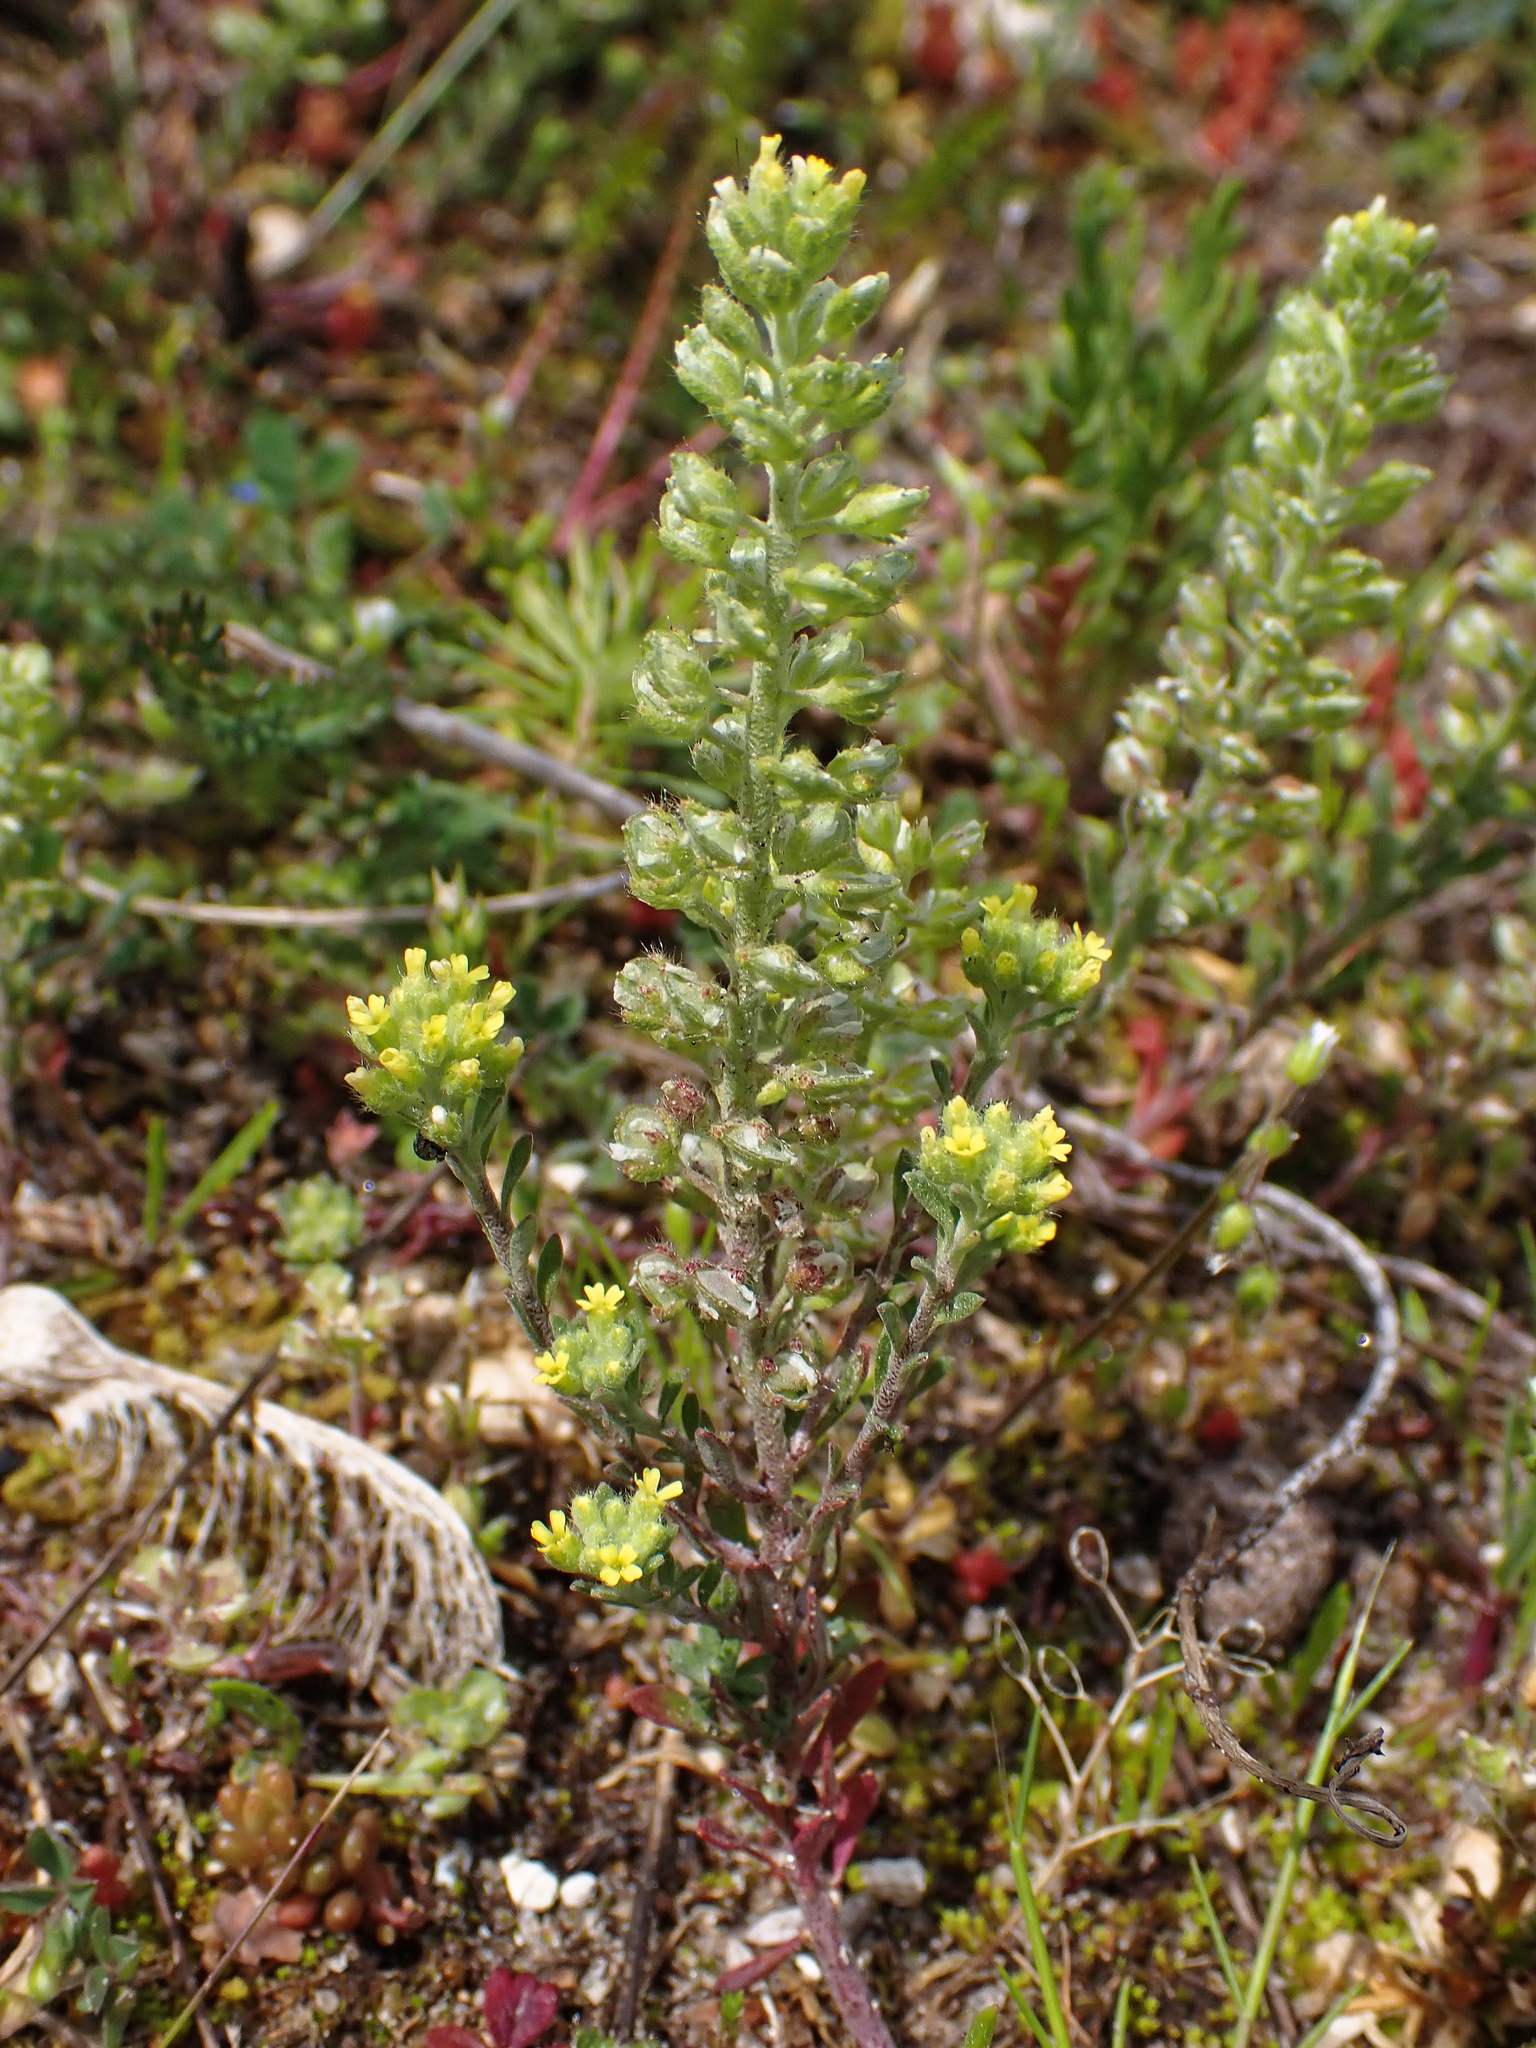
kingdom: Plantae
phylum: Tracheophyta
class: Magnoliopsida
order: Brassicales
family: Brassicaceae
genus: Alyssum
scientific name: Alyssum alyssoides
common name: Small alison
